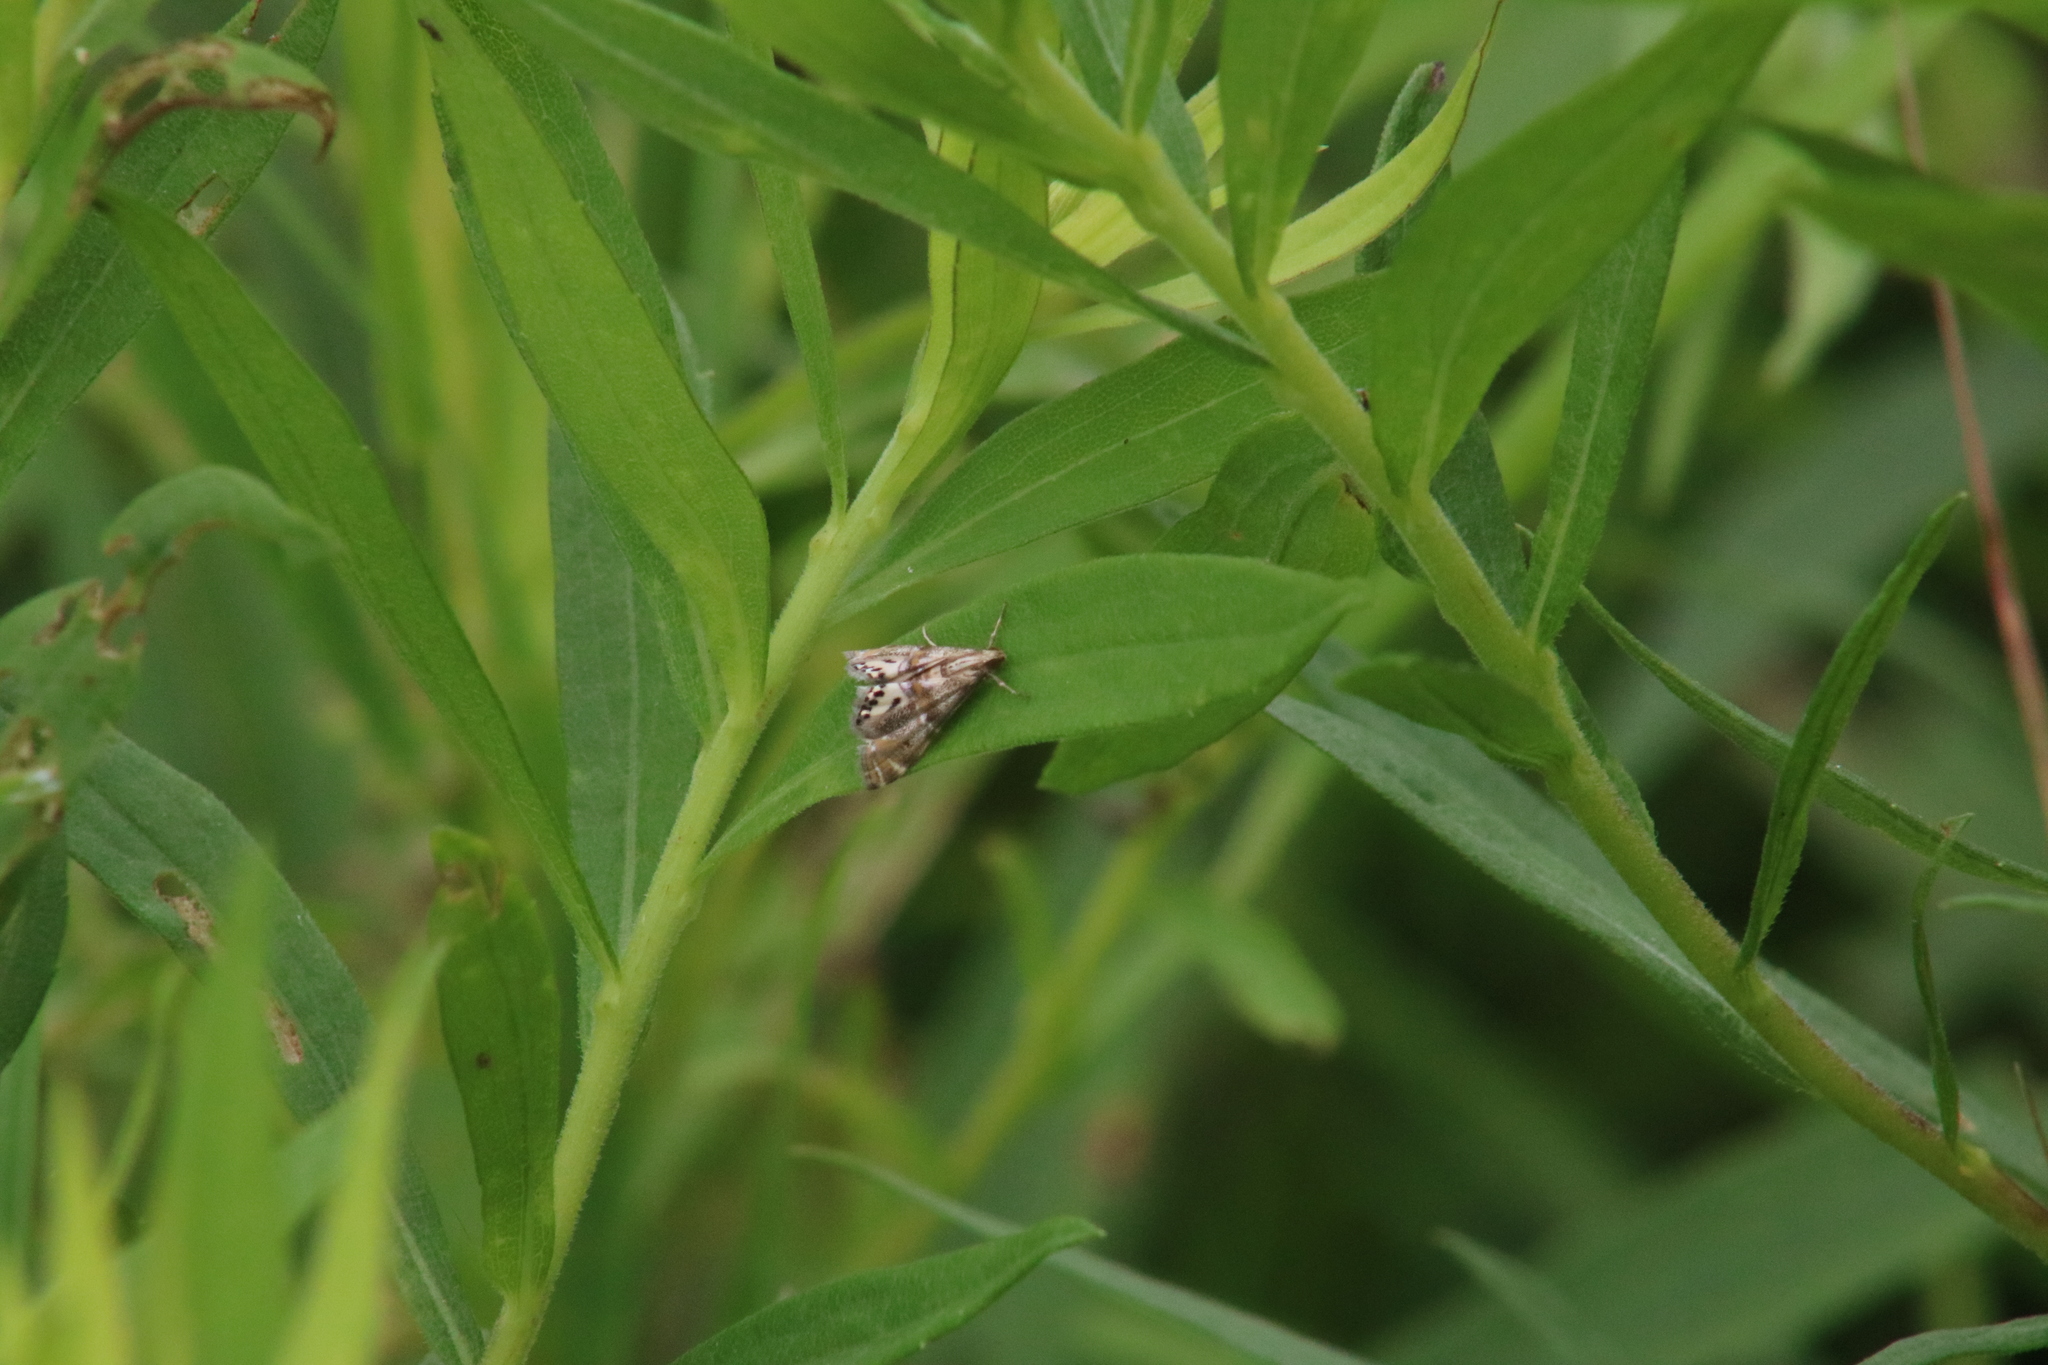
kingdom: Animalia
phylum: Arthropoda
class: Insecta
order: Lepidoptera
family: Crambidae
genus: Petrophila
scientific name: Petrophila bifascialis
